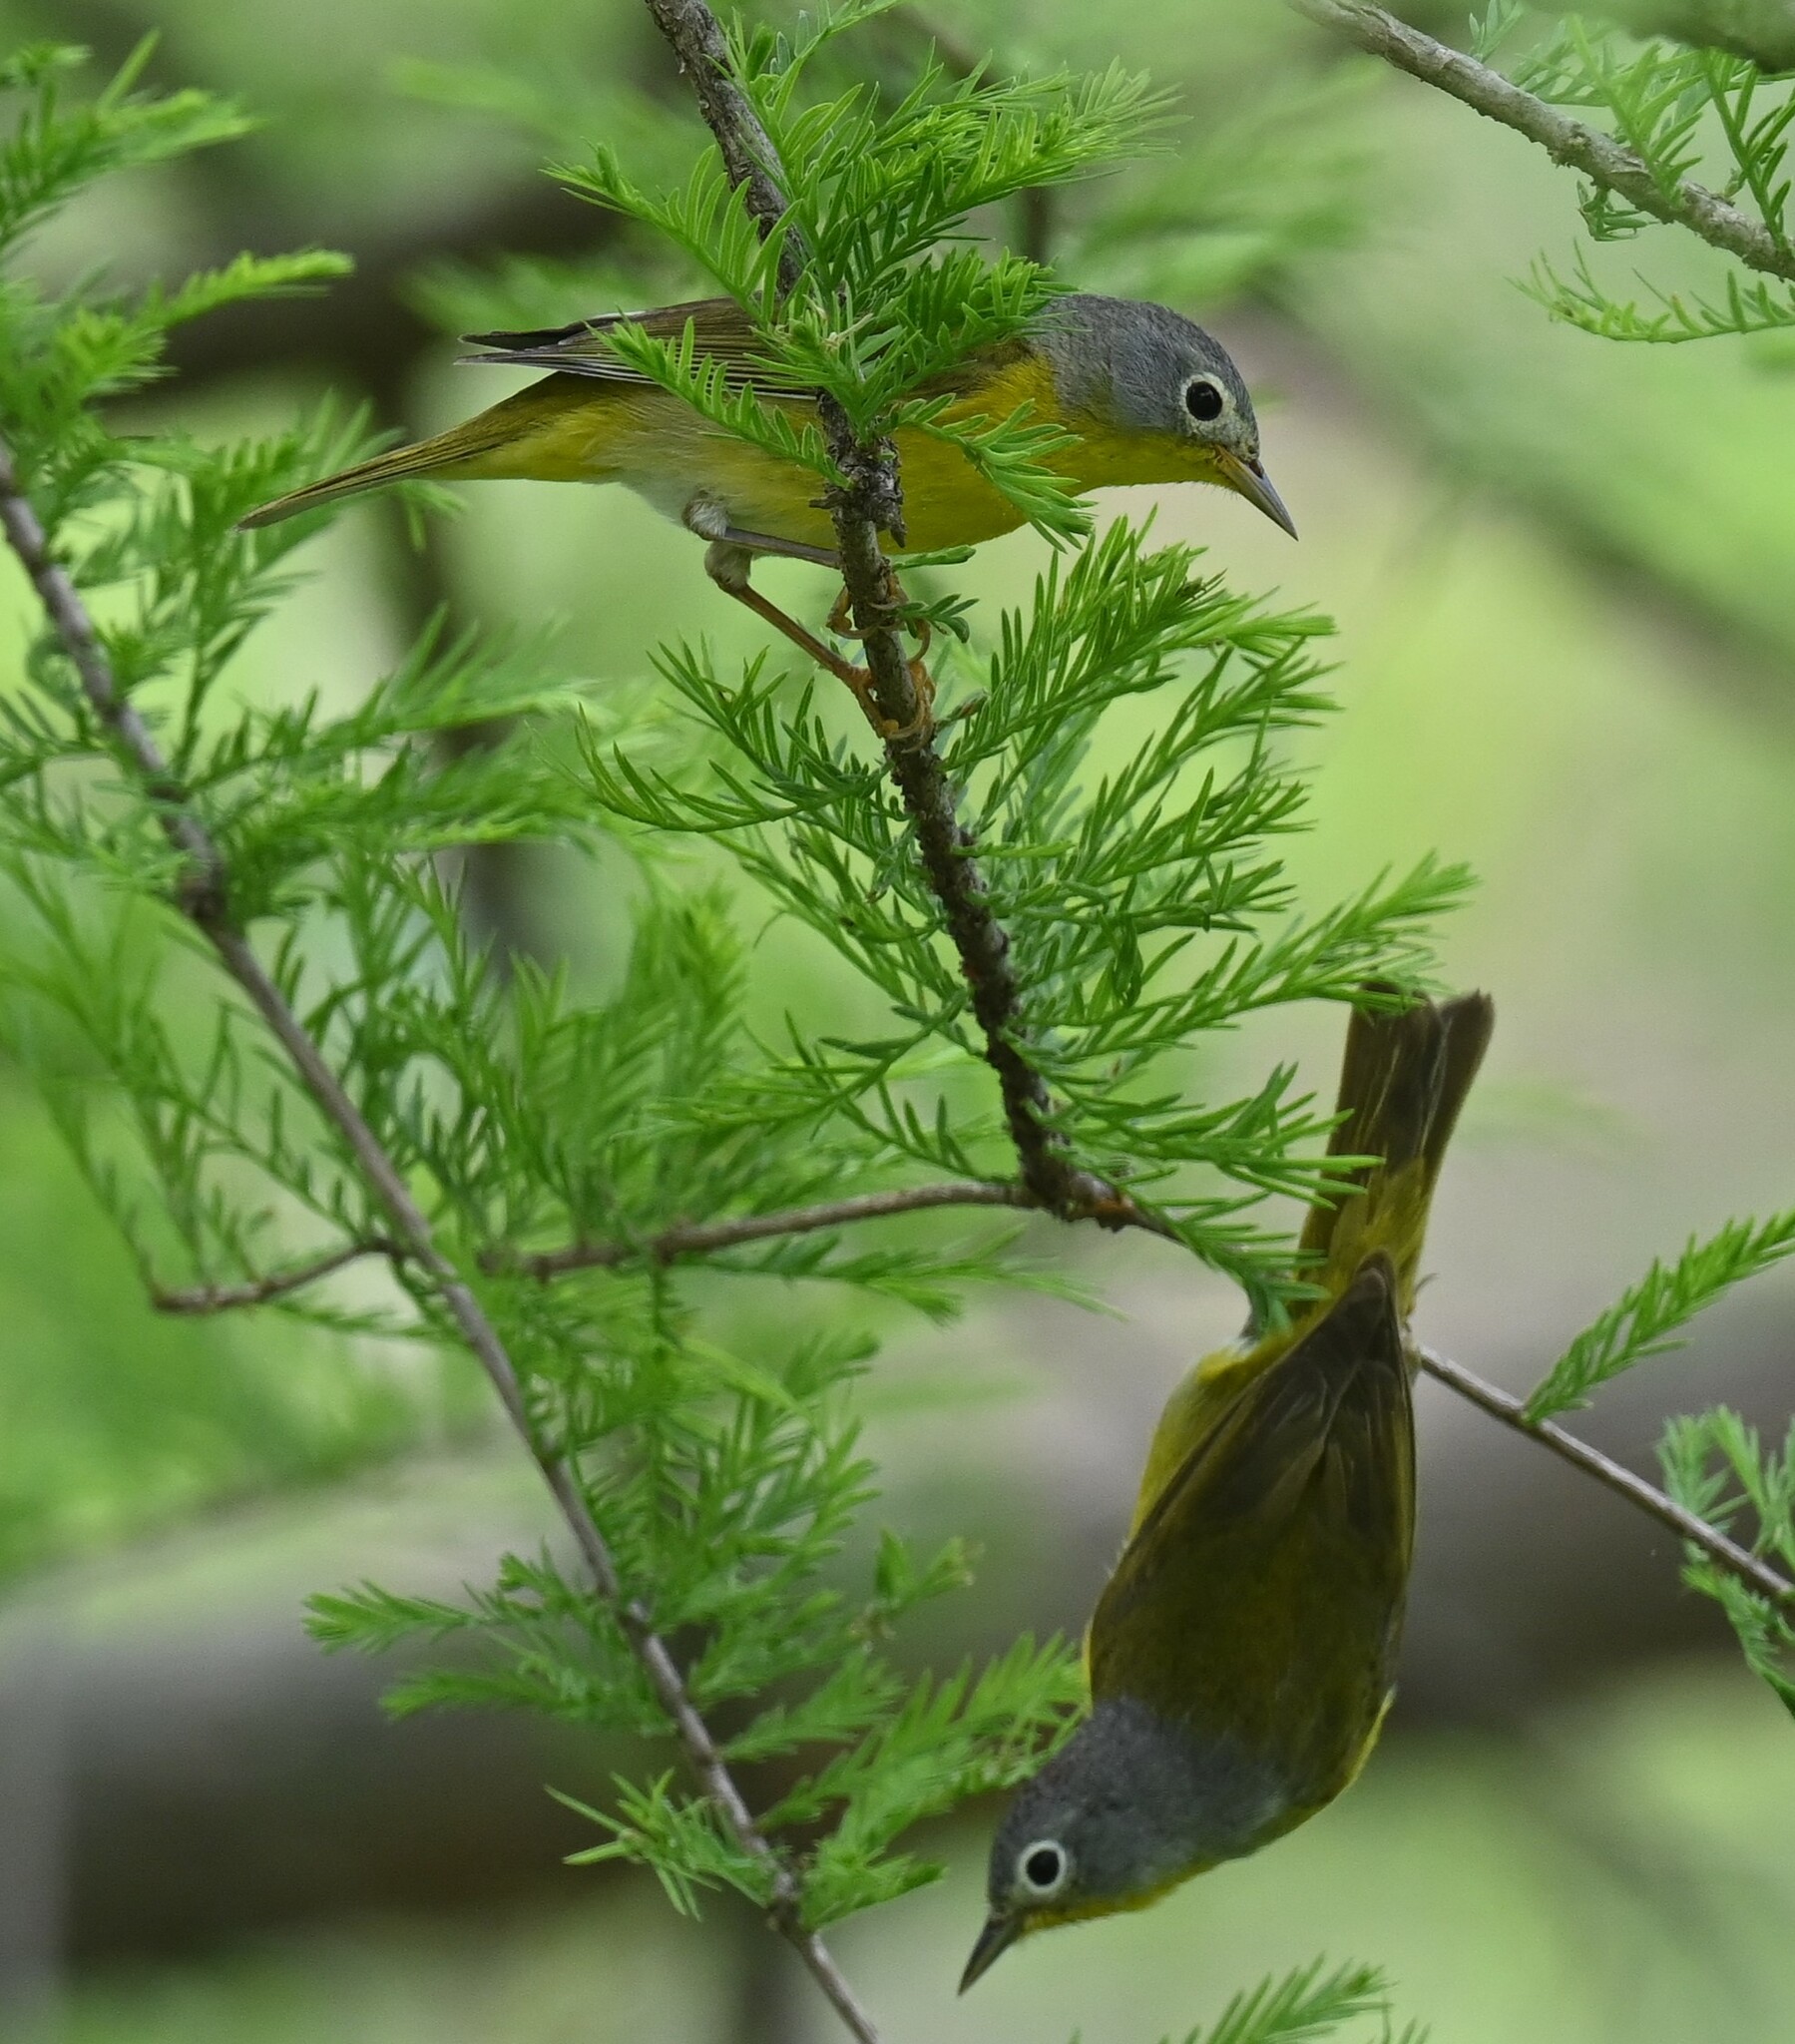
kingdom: Animalia
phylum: Chordata
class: Aves
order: Passeriformes
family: Parulidae
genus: Leiothlypis
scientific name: Leiothlypis ruficapilla
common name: Nashville warbler
